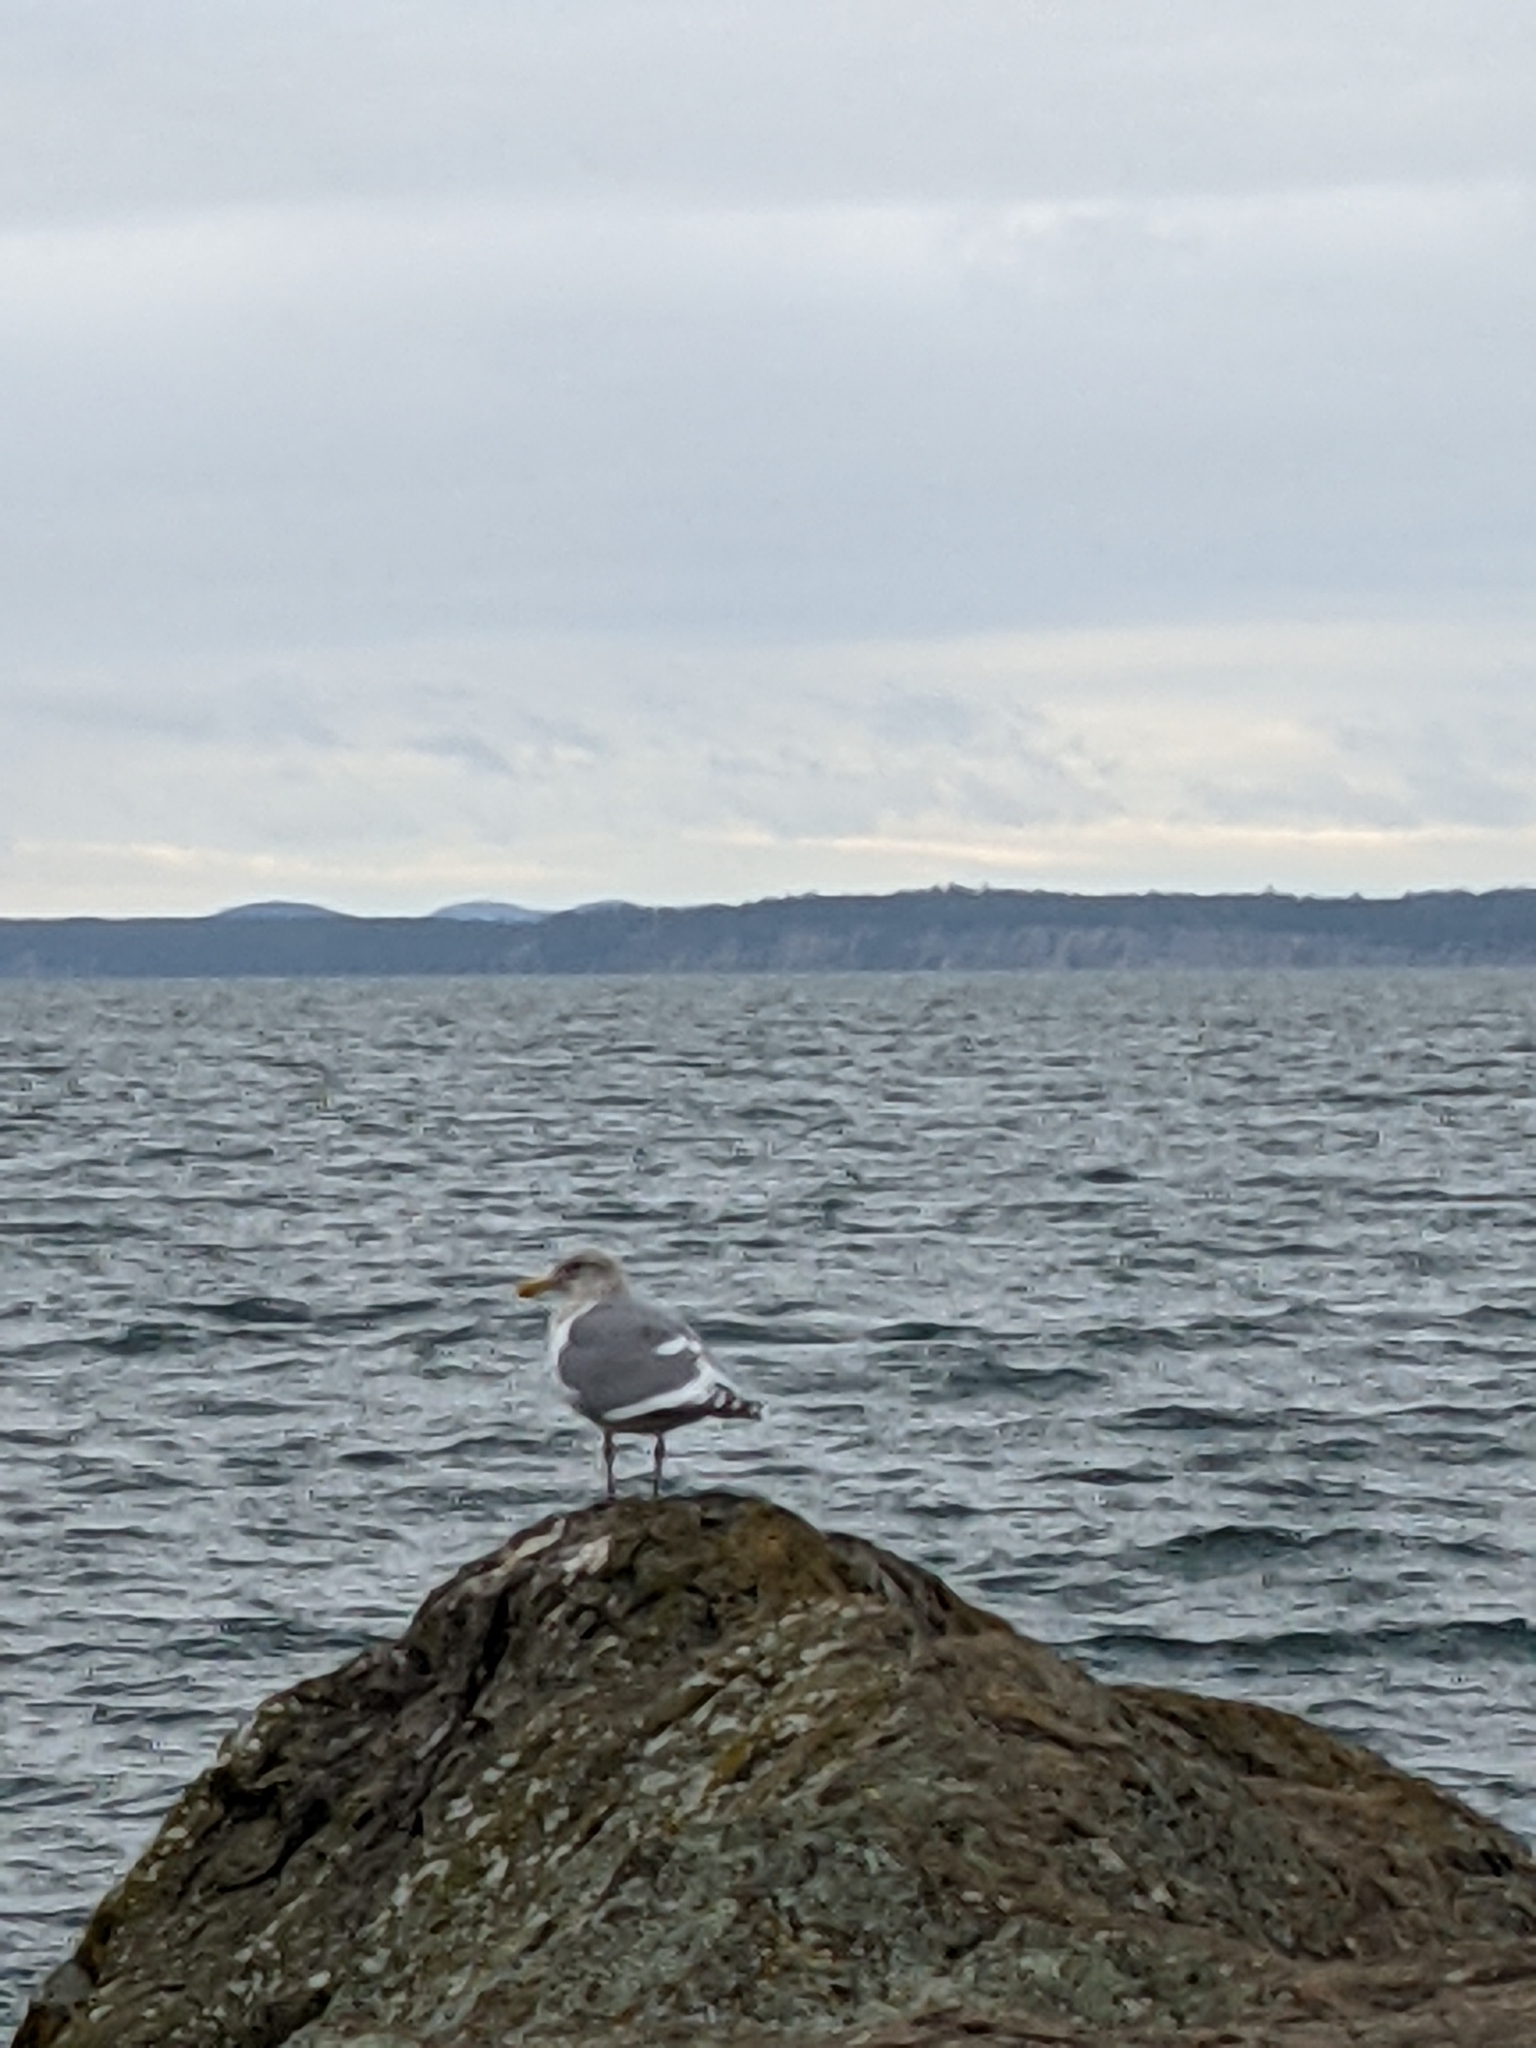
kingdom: Animalia
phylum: Chordata
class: Aves
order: Charadriiformes
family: Laridae
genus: Larus
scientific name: Larus
